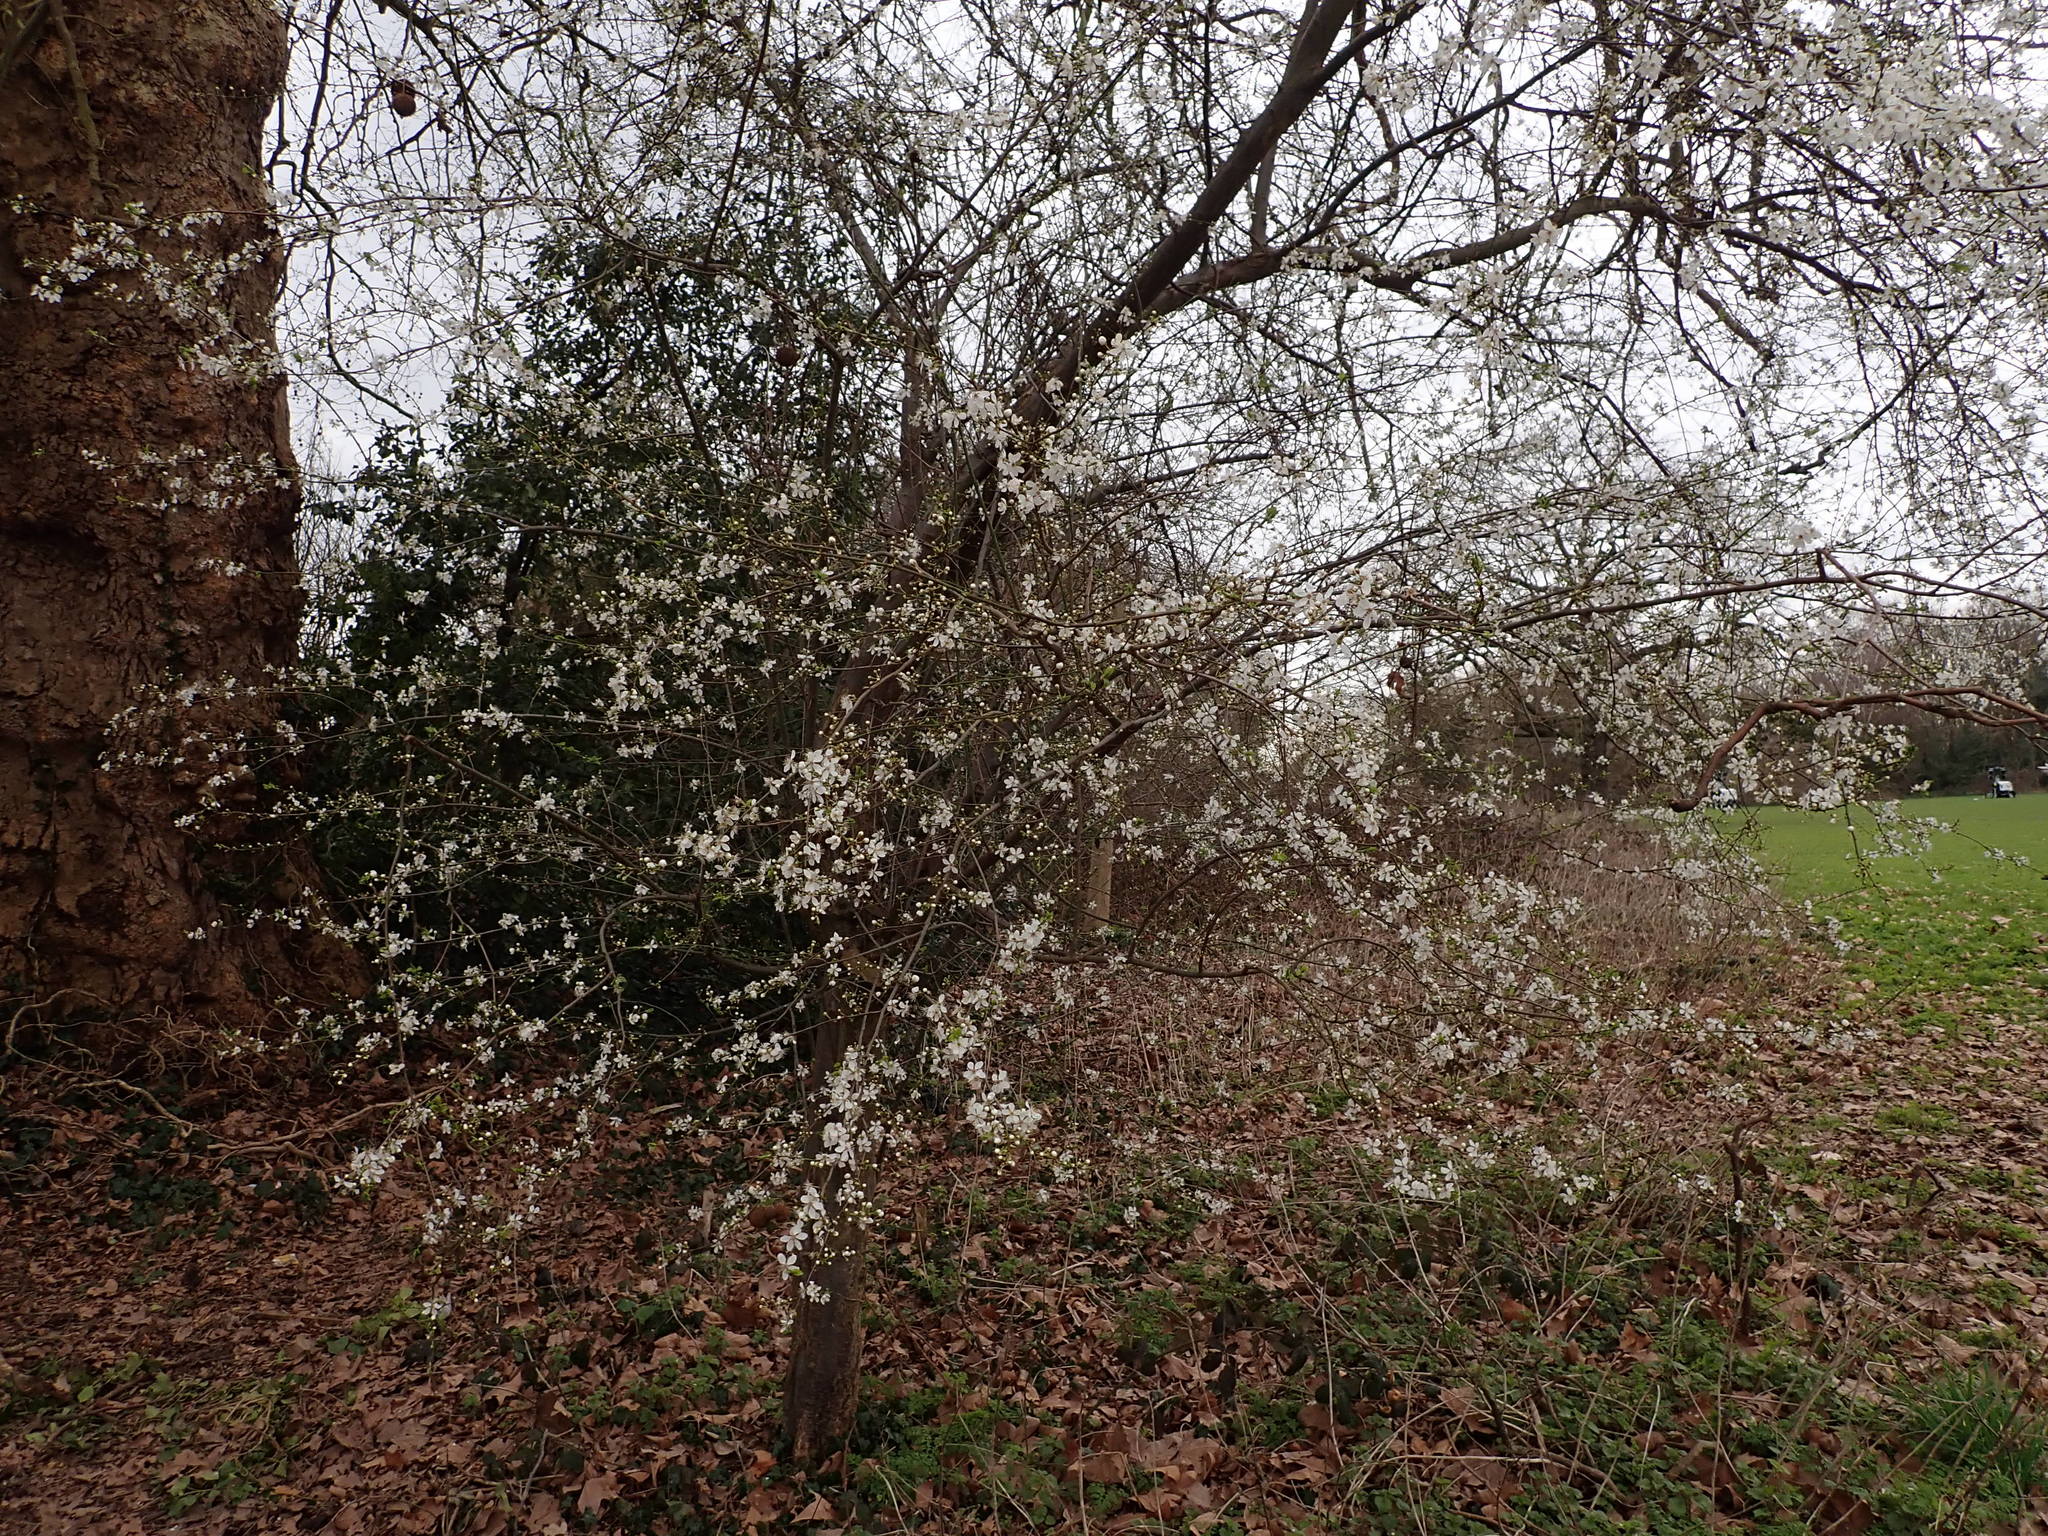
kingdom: Plantae
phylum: Tracheophyta
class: Magnoliopsida
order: Rosales
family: Rosaceae
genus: Prunus
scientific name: Prunus cerasifera
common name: Cherry plum
